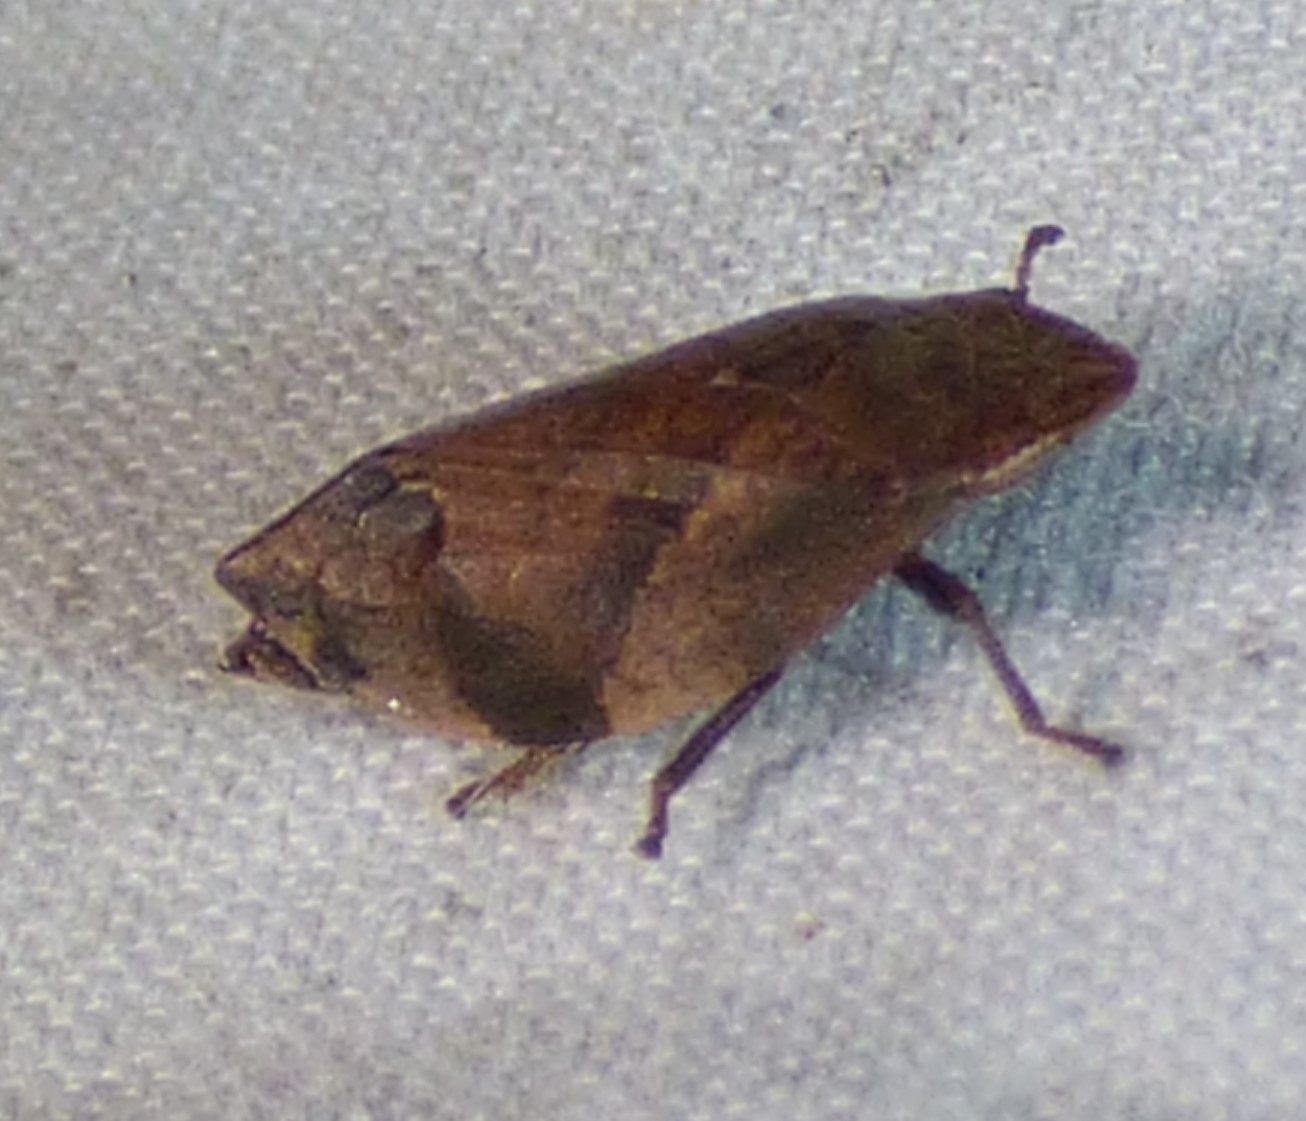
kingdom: Animalia
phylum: Arthropoda
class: Insecta
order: Hemiptera
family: Aphrophoridae
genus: Lepyronia
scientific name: Lepyronia quadrangularis
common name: Diamond-backed spittlebug
